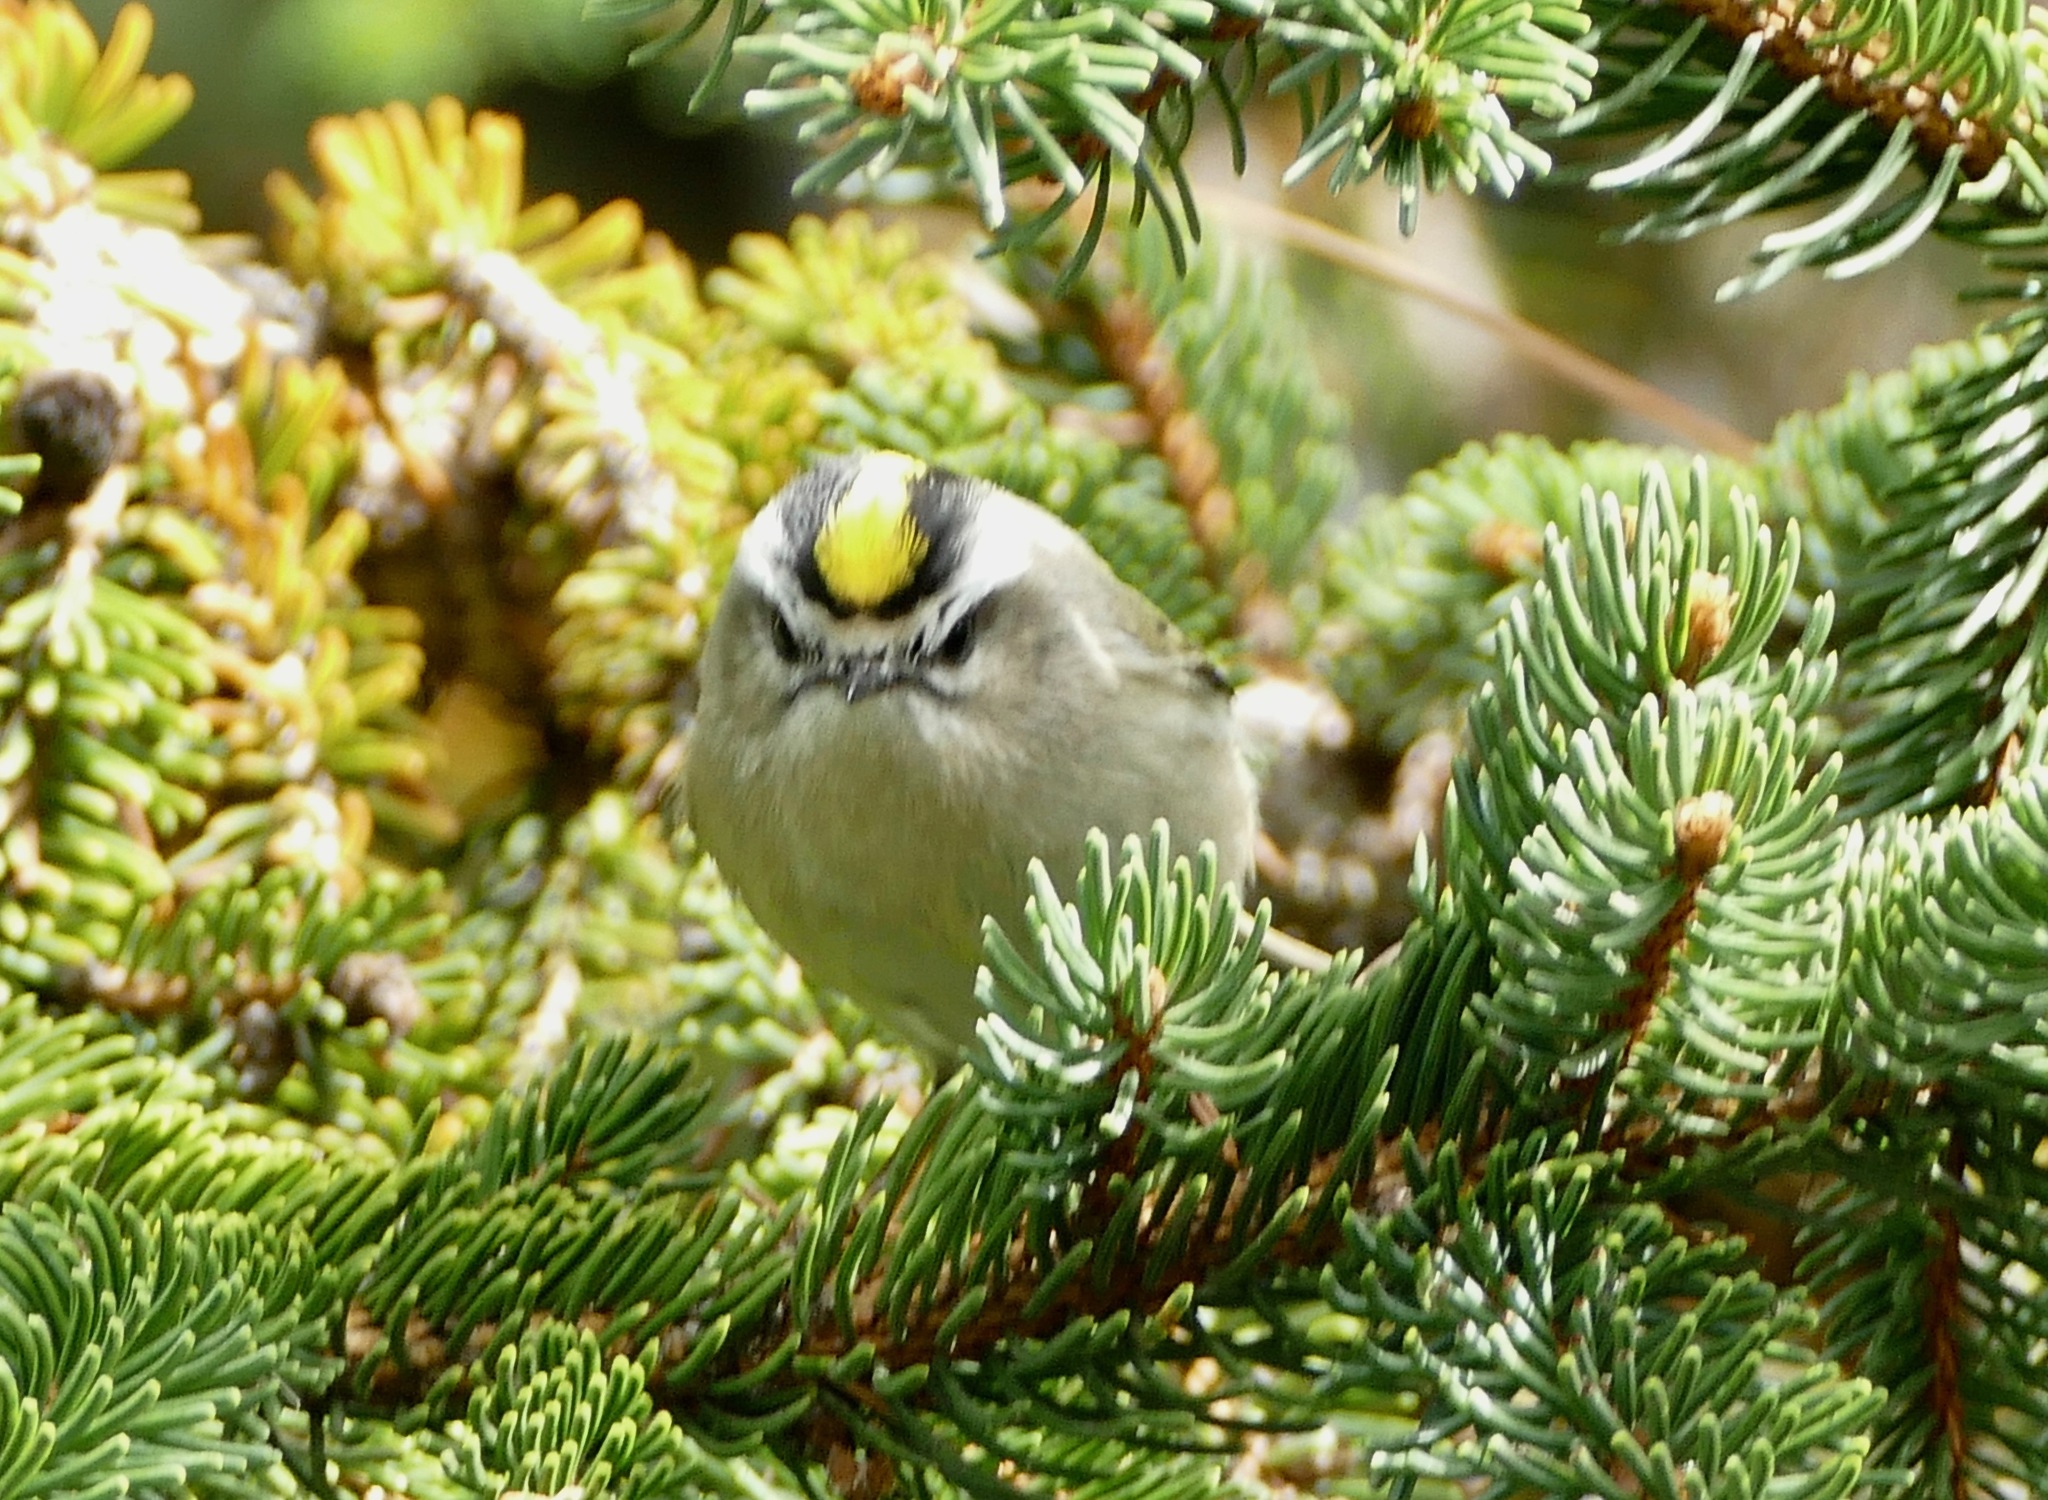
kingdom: Animalia
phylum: Chordata
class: Aves
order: Passeriformes
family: Regulidae
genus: Regulus
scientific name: Regulus satrapa
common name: Golden-crowned kinglet
